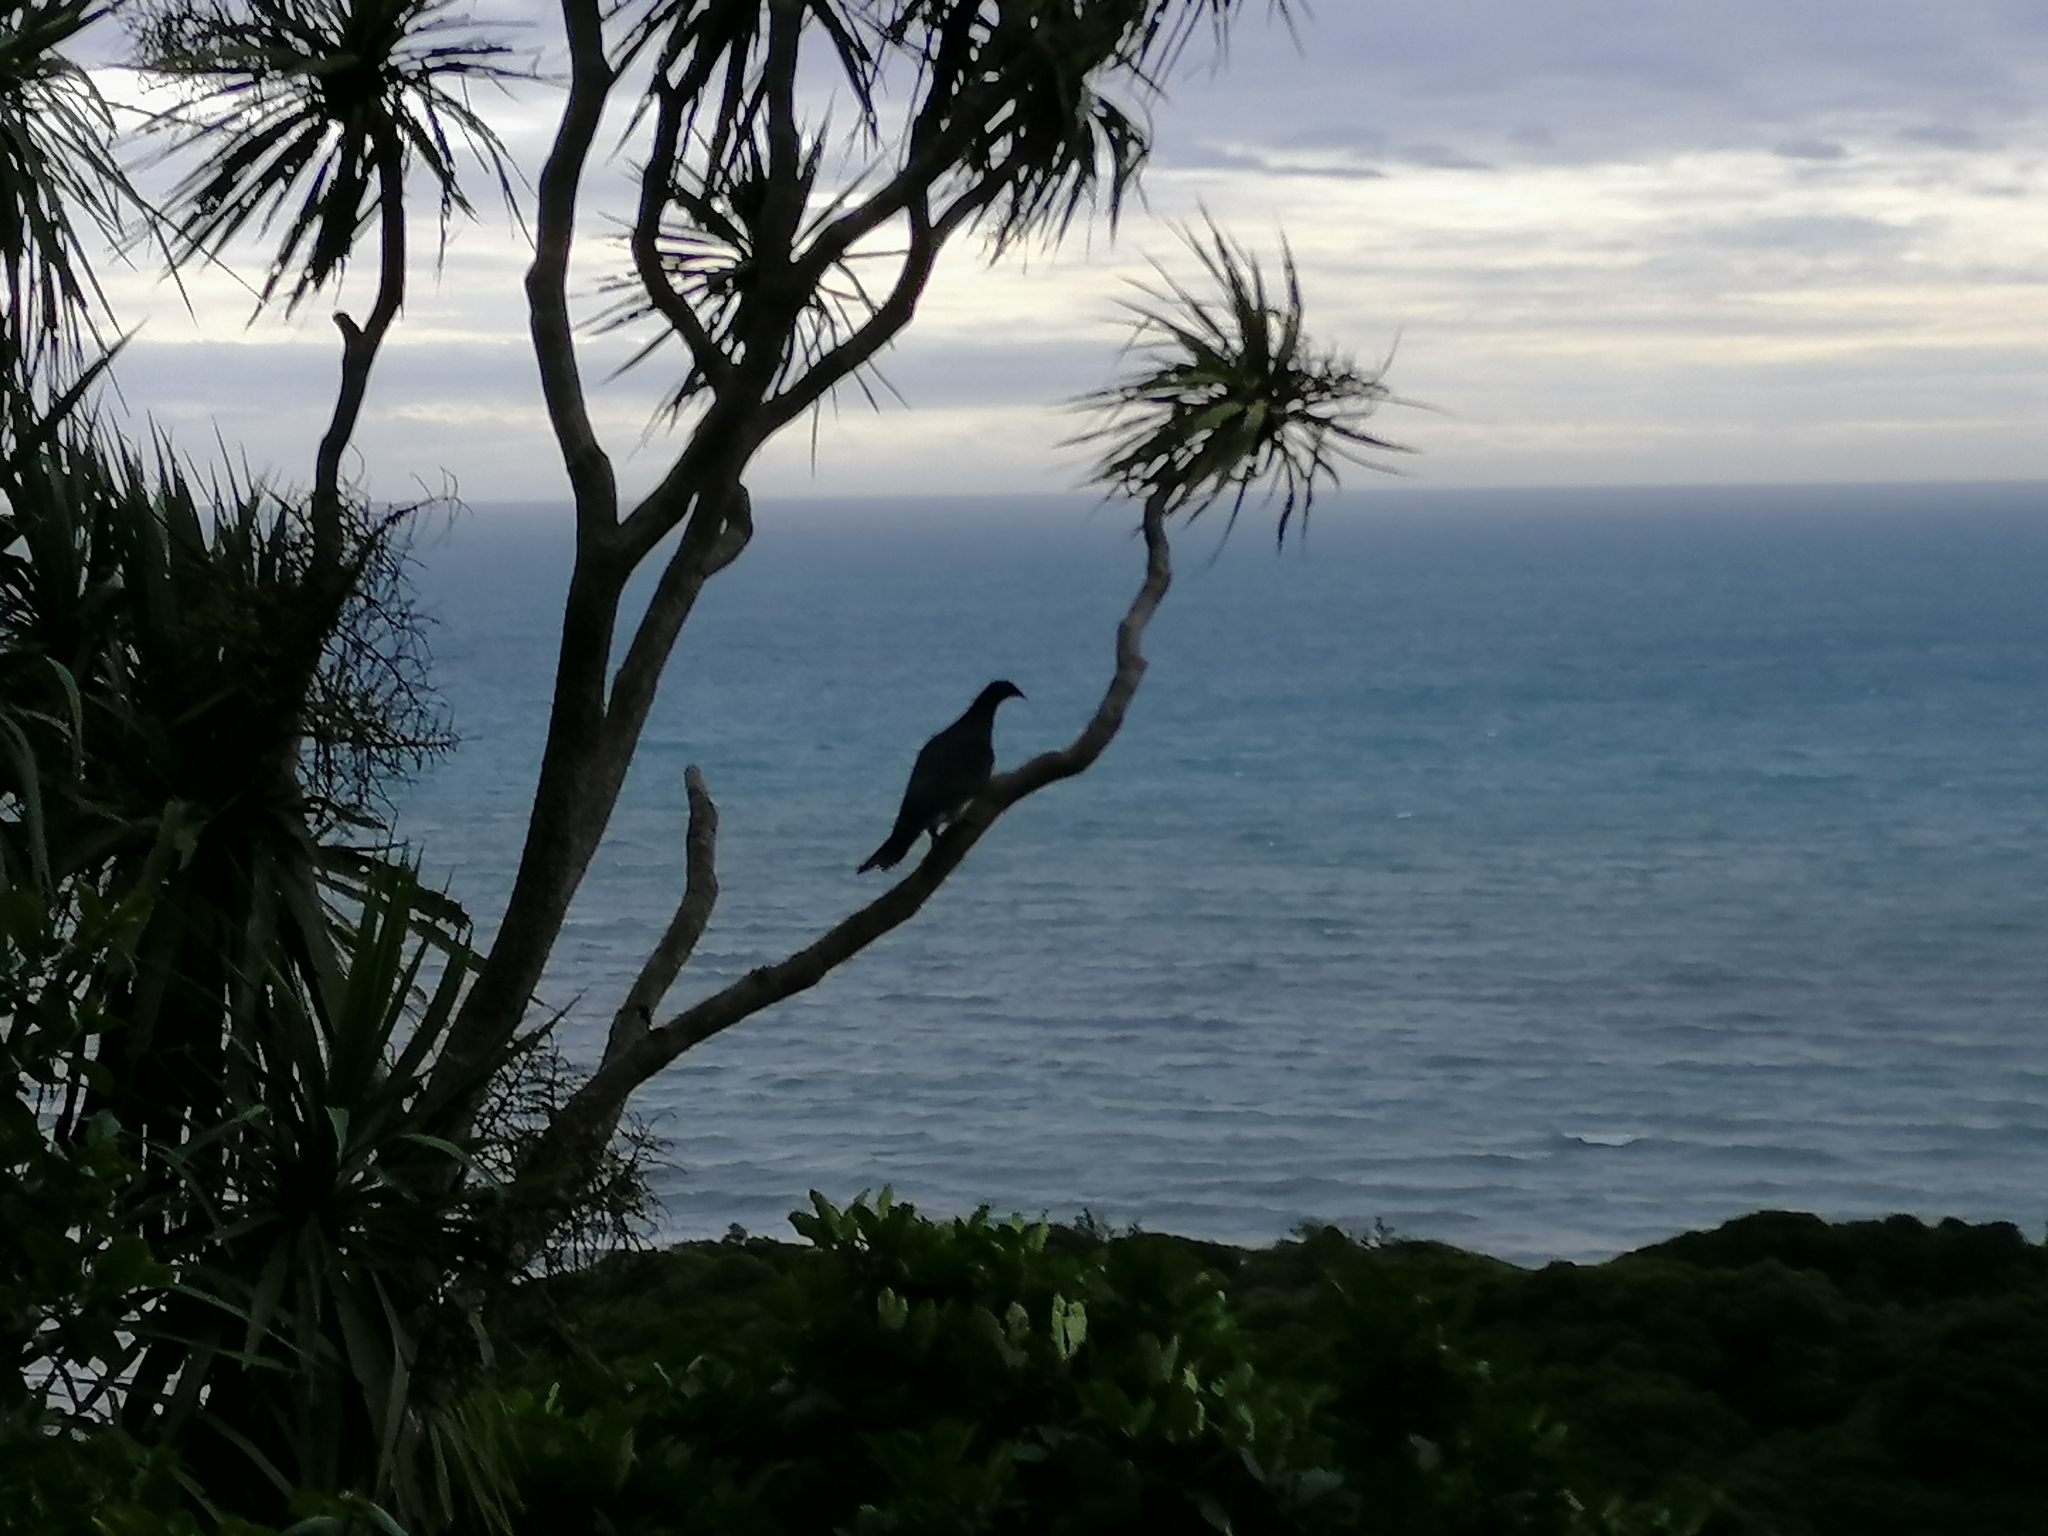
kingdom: Animalia
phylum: Chordata
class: Aves
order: Columbiformes
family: Columbidae
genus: Hemiphaga
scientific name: Hemiphaga novaeseelandiae
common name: New zealand pigeon
